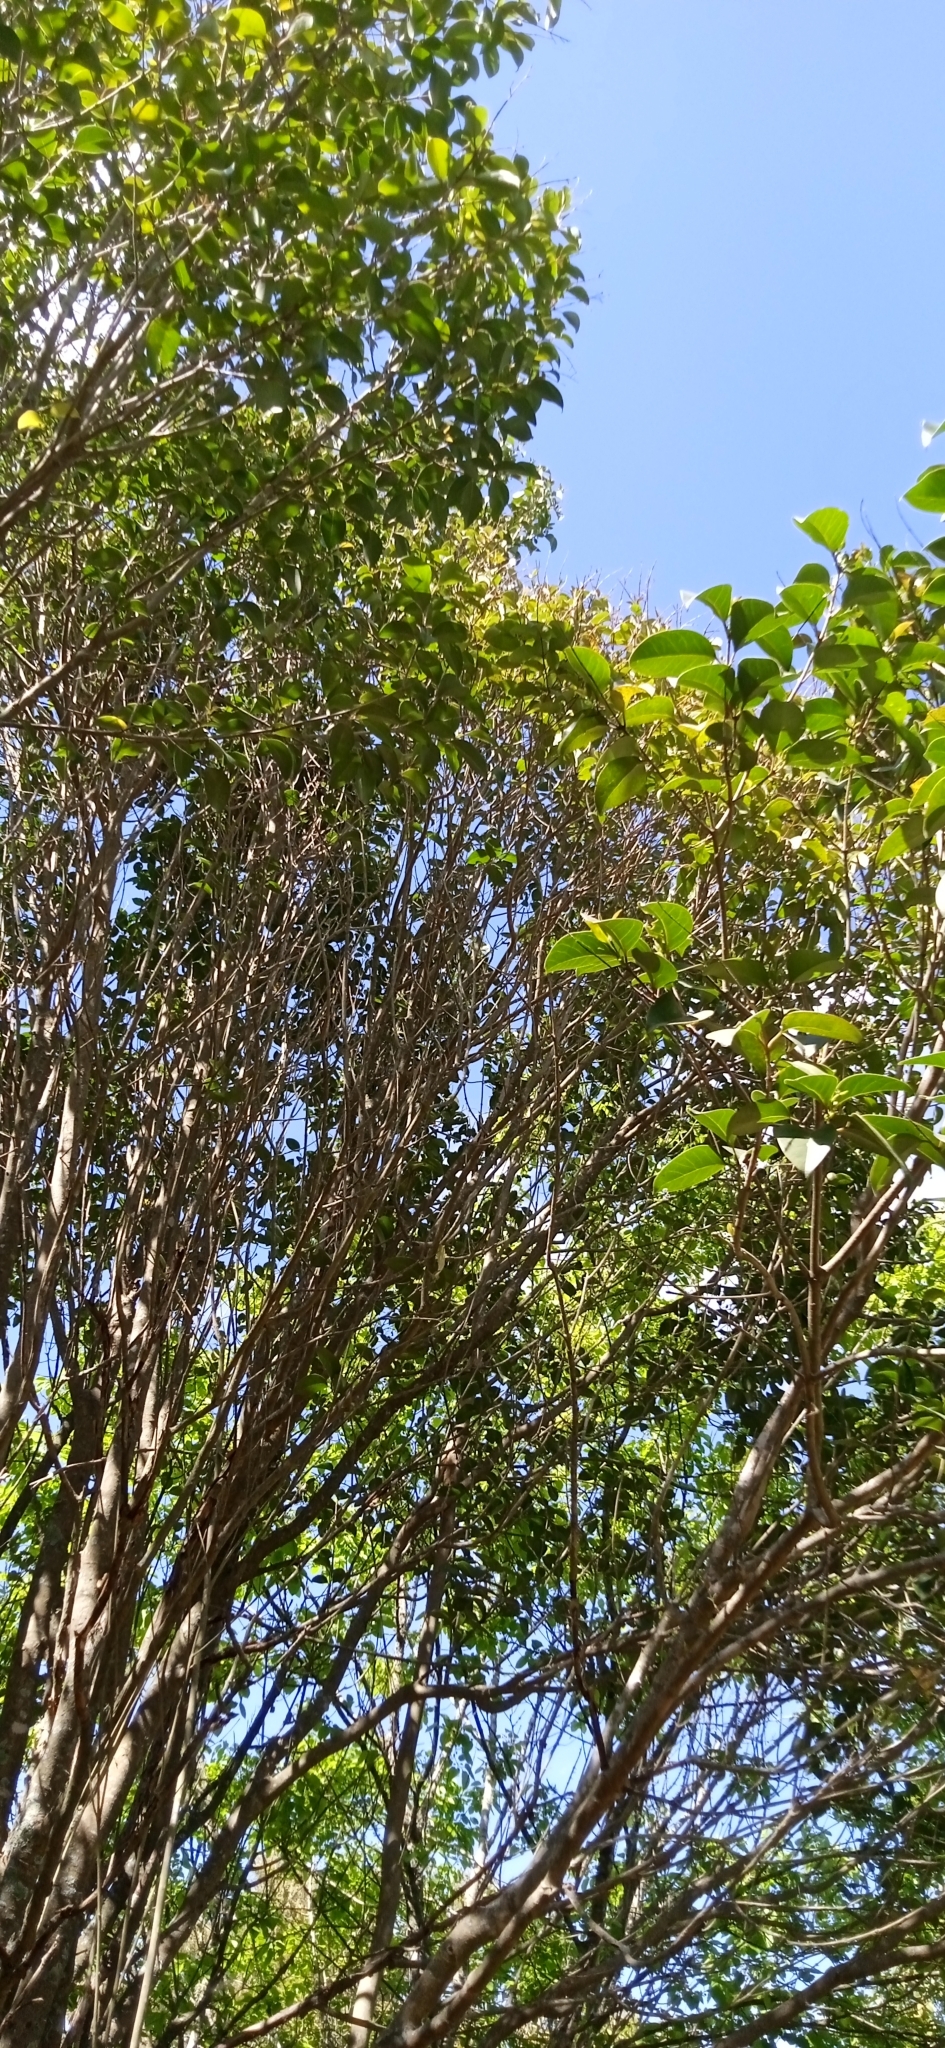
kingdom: Plantae
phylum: Tracheophyta
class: Magnoliopsida
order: Lamiales
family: Oleaceae
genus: Ligustrum
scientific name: Ligustrum lucidum
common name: Glossy privet
